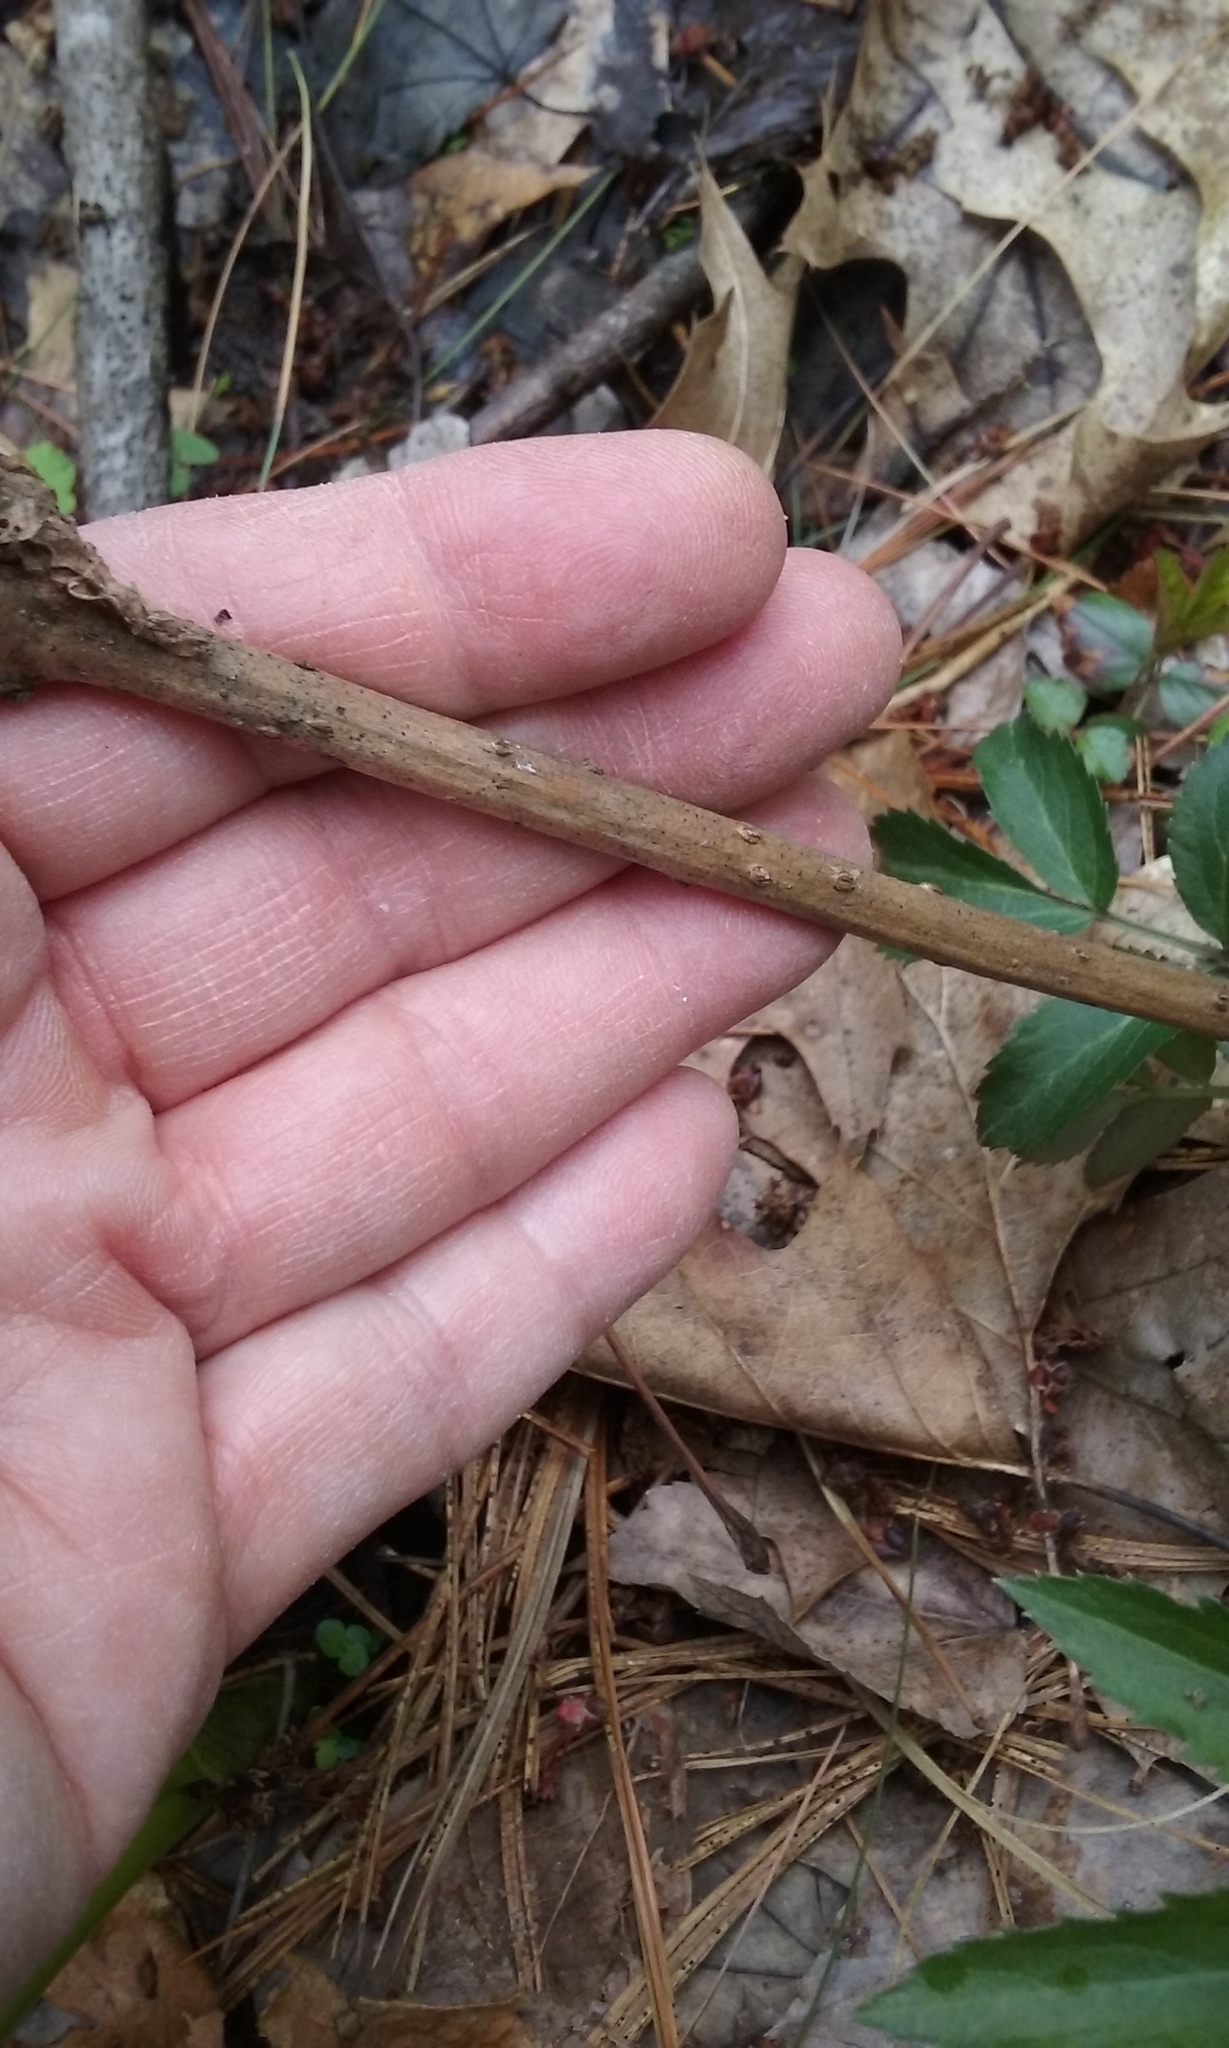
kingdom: Plantae
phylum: Tracheophyta
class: Magnoliopsida
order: Dipsacales
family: Viburnaceae
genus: Sambucus
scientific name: Sambucus
